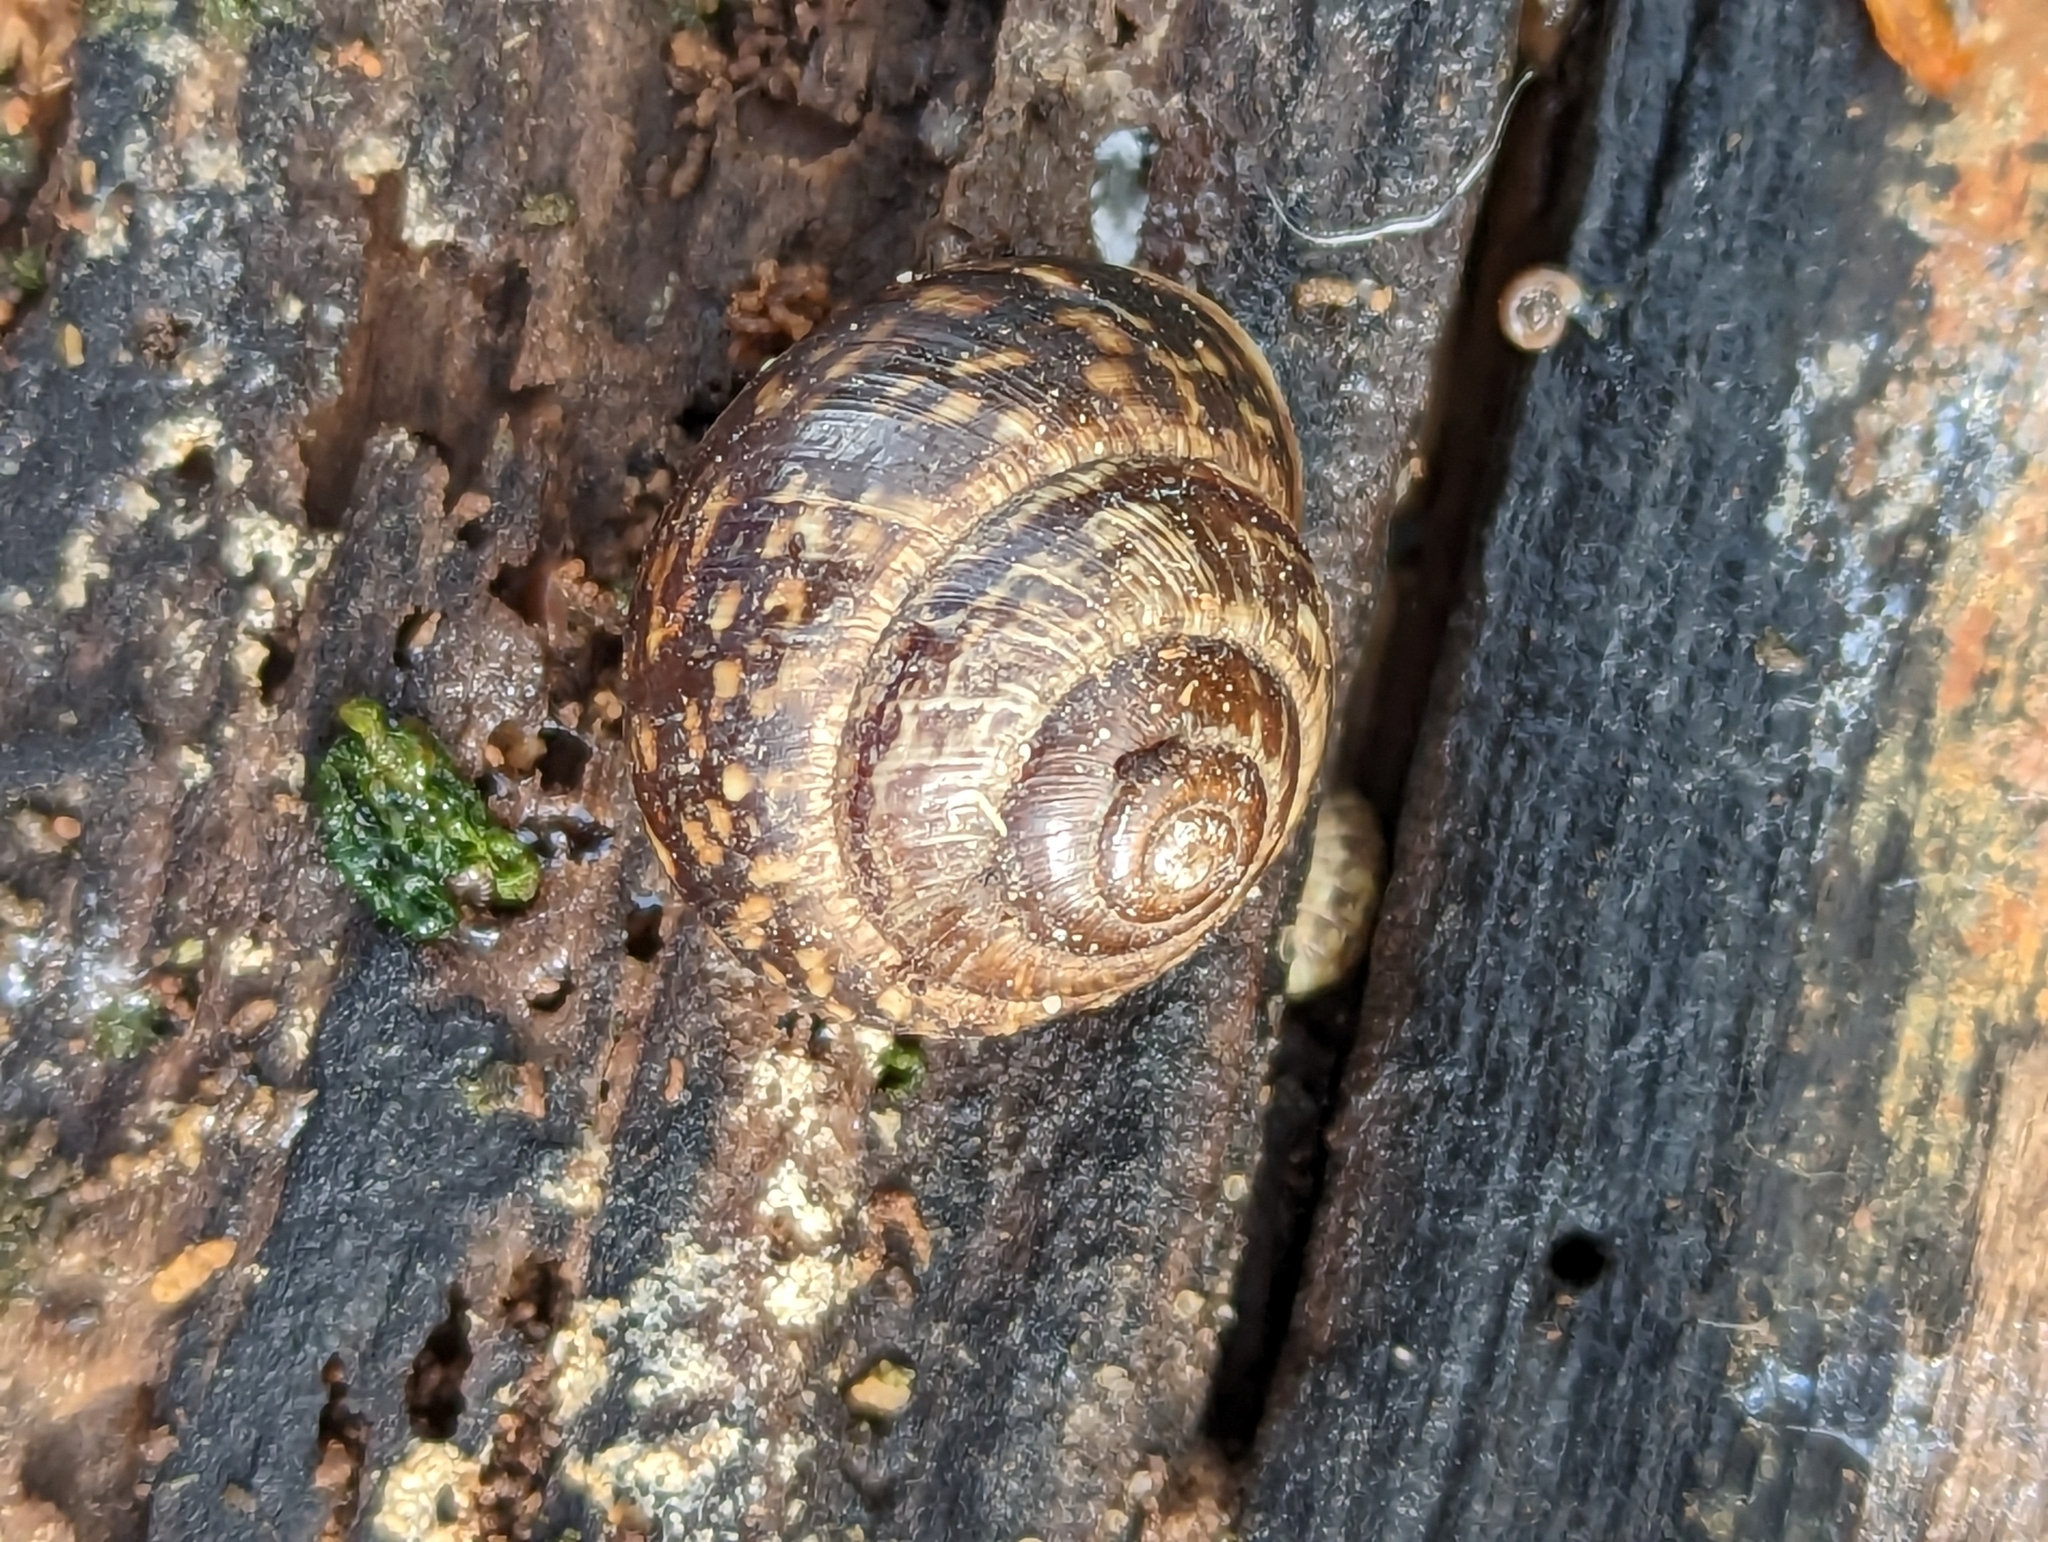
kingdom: Animalia
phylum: Mollusca
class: Gastropoda
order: Stylommatophora
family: Helicidae
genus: Arianta
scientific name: Arianta arbustorum
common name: Copse snail
